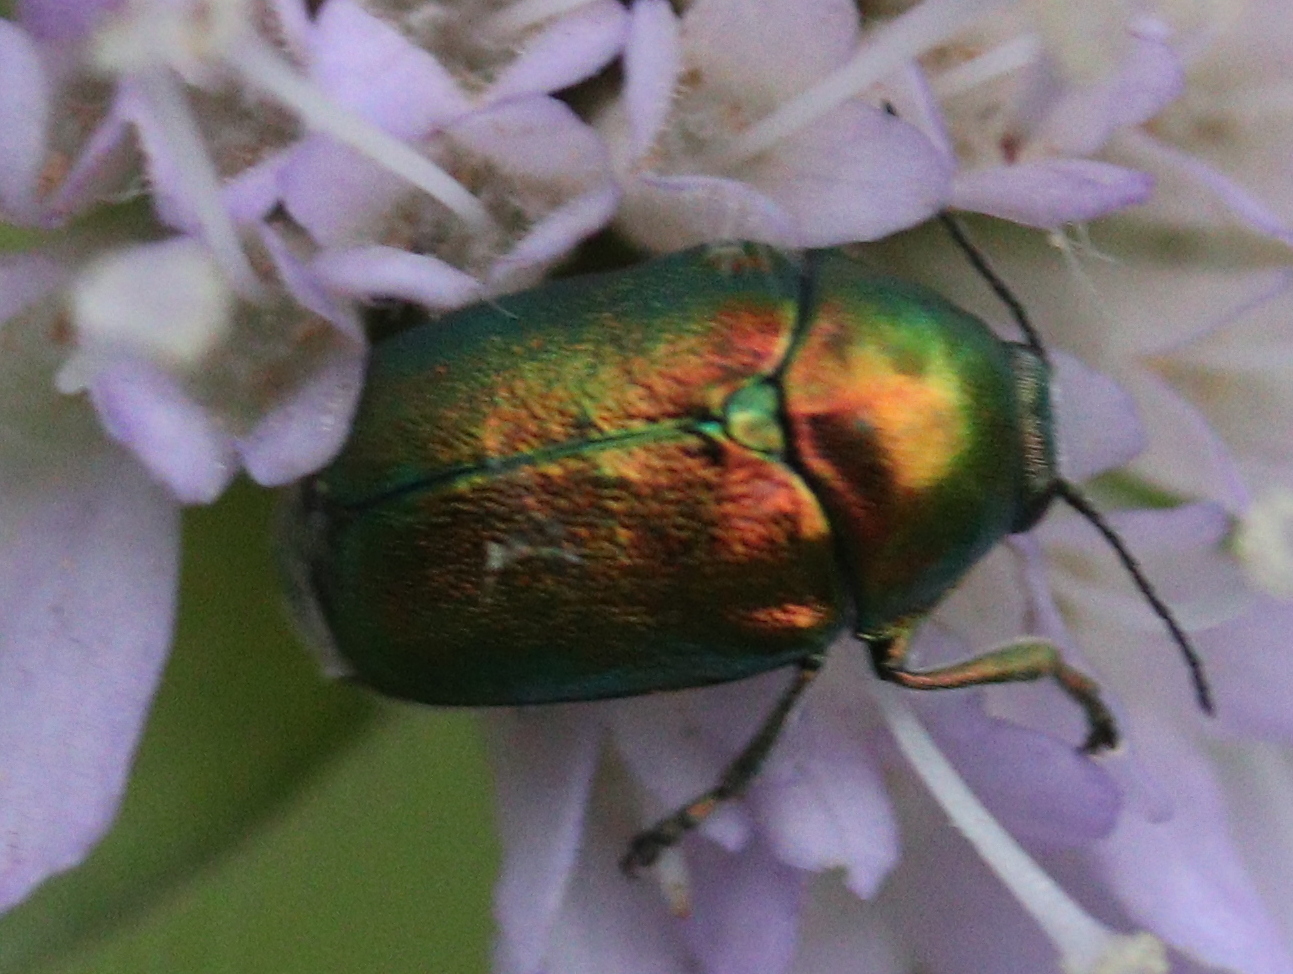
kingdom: Animalia
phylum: Arthropoda
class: Insecta
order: Coleoptera
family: Chrysomelidae
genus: Cryptocephalus
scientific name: Cryptocephalus
